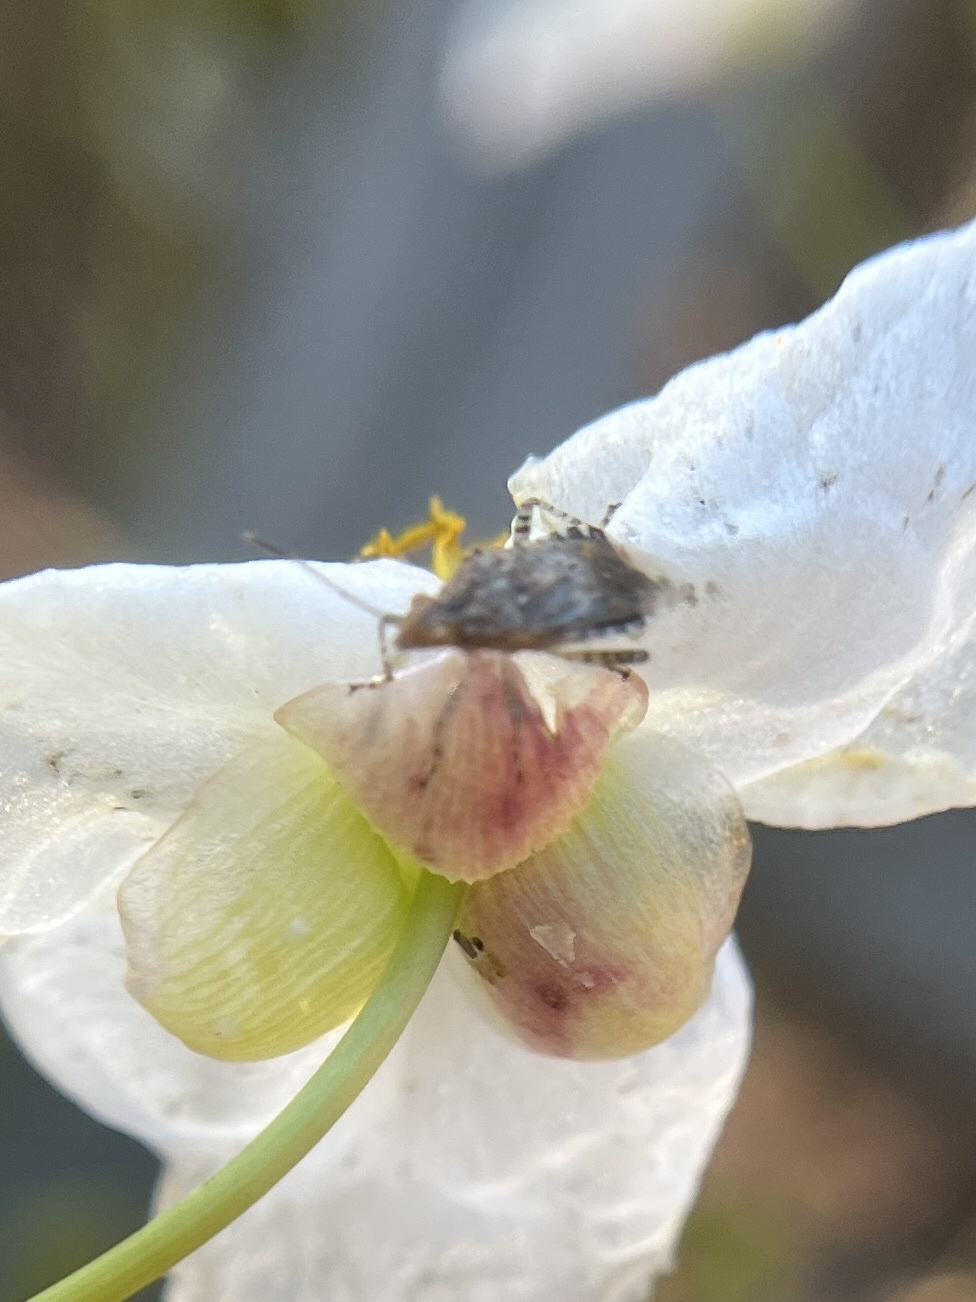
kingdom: Animalia
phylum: Arthropoda
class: Insecta
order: Hemiptera
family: Rhopalidae
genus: Niesthrea
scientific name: Niesthrea louisianica
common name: Scentless plant bug
